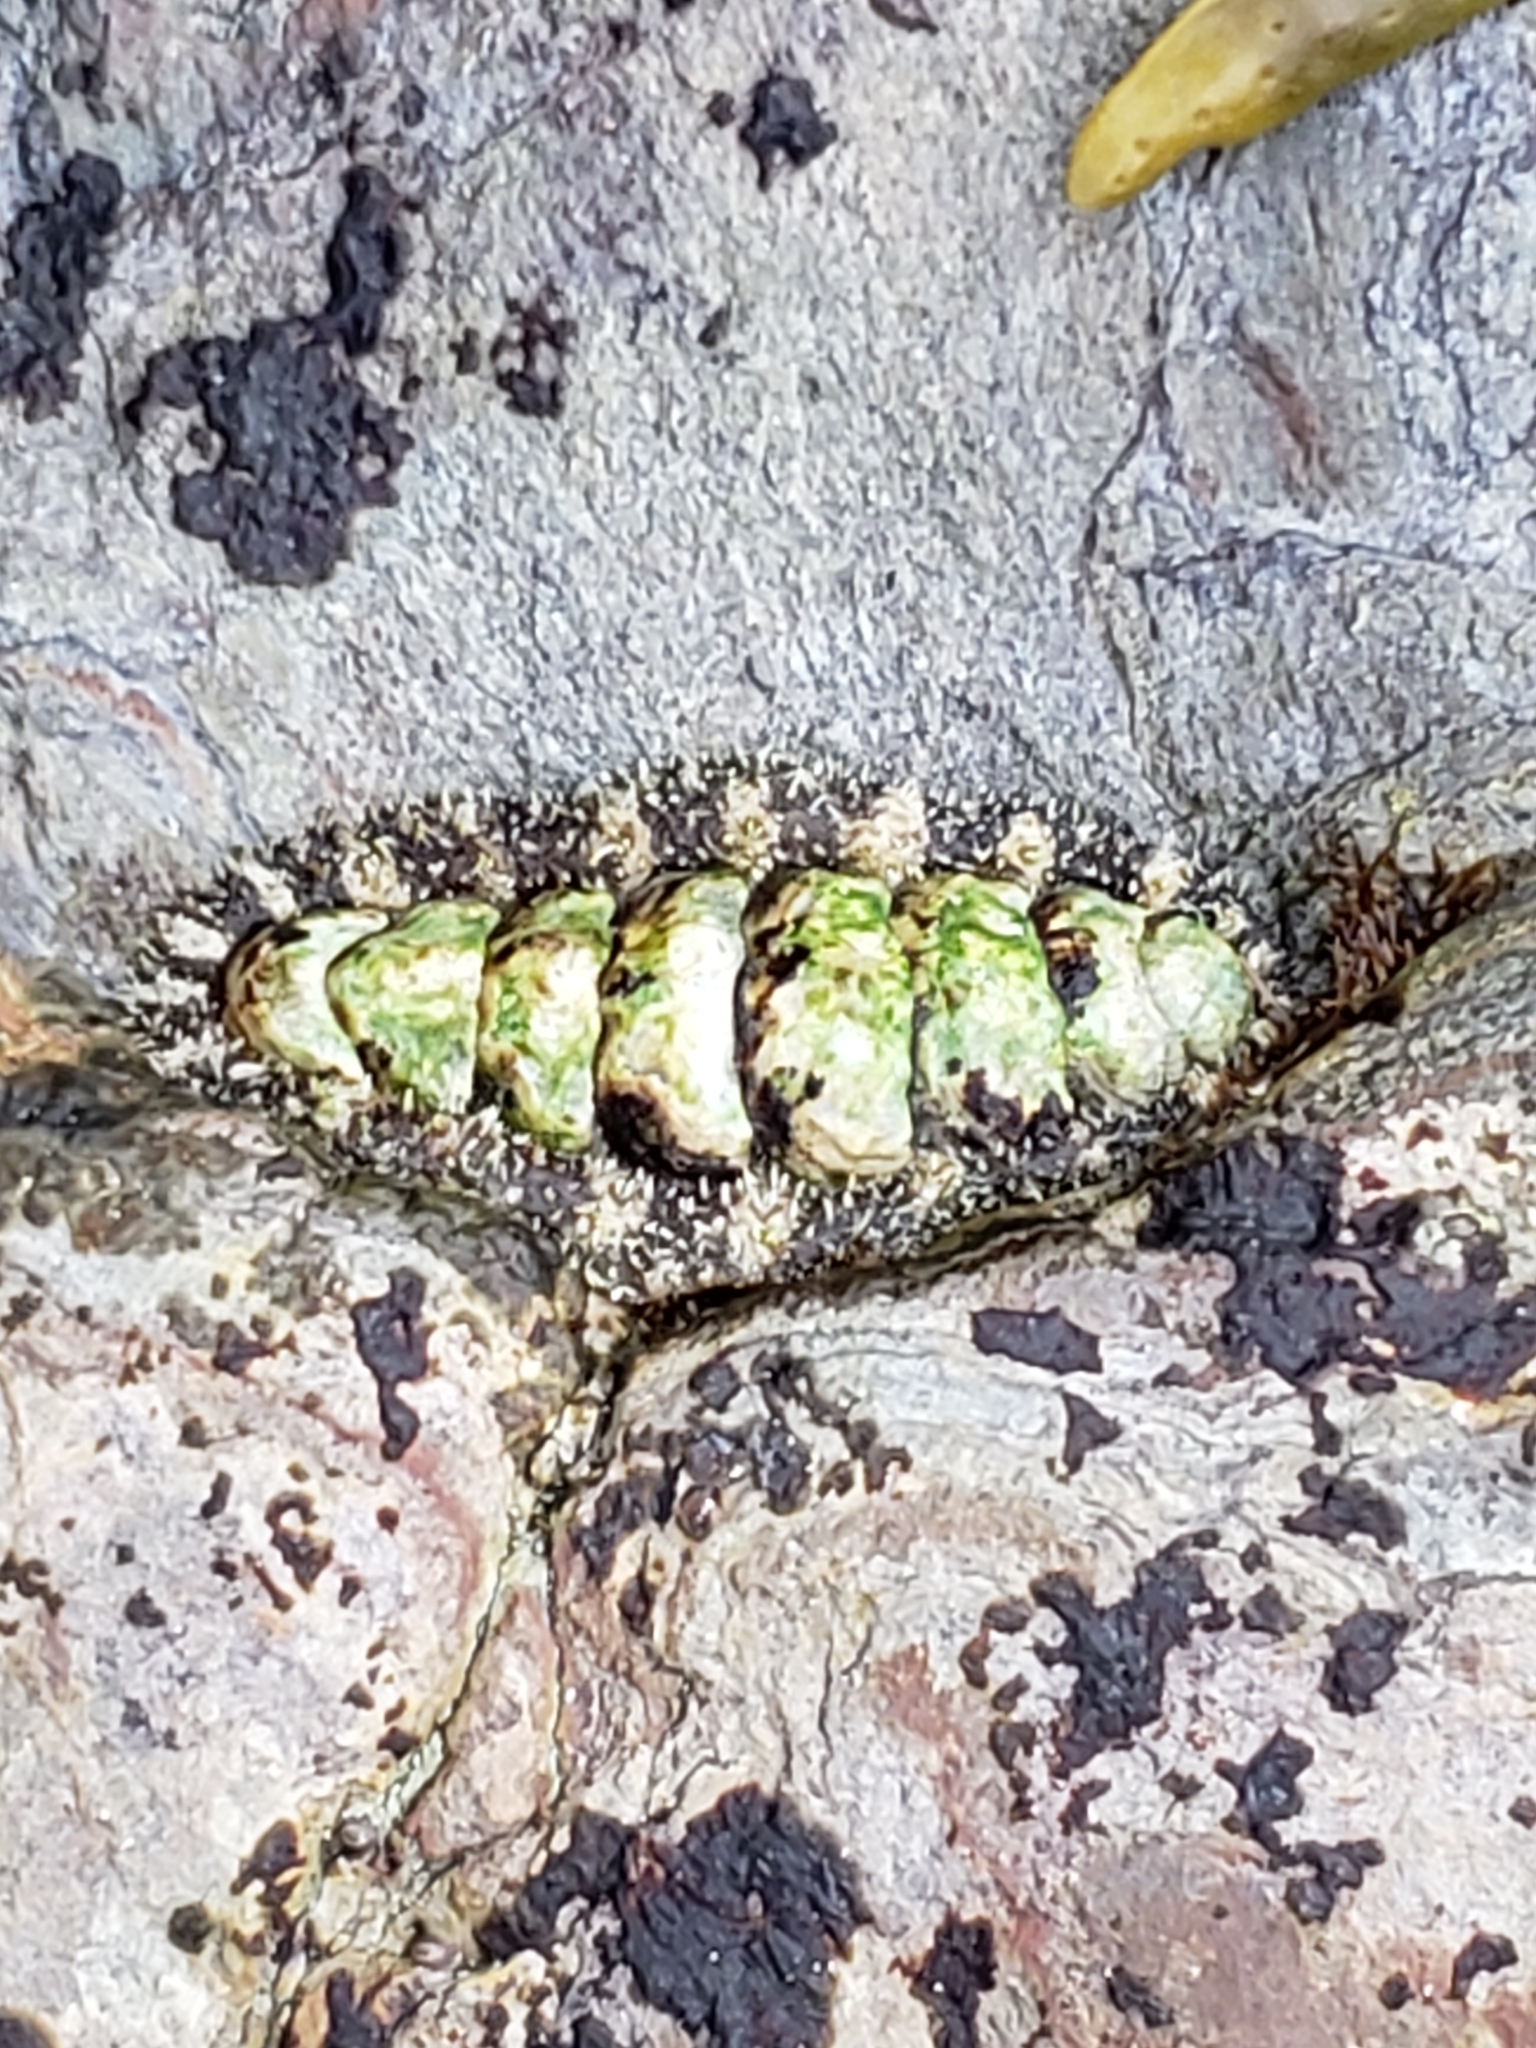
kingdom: Animalia
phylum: Mollusca
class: Polyplacophora
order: Chitonida
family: Tonicellidae
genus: Nuttallina
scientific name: Nuttallina californica
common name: California nuttall chiton
